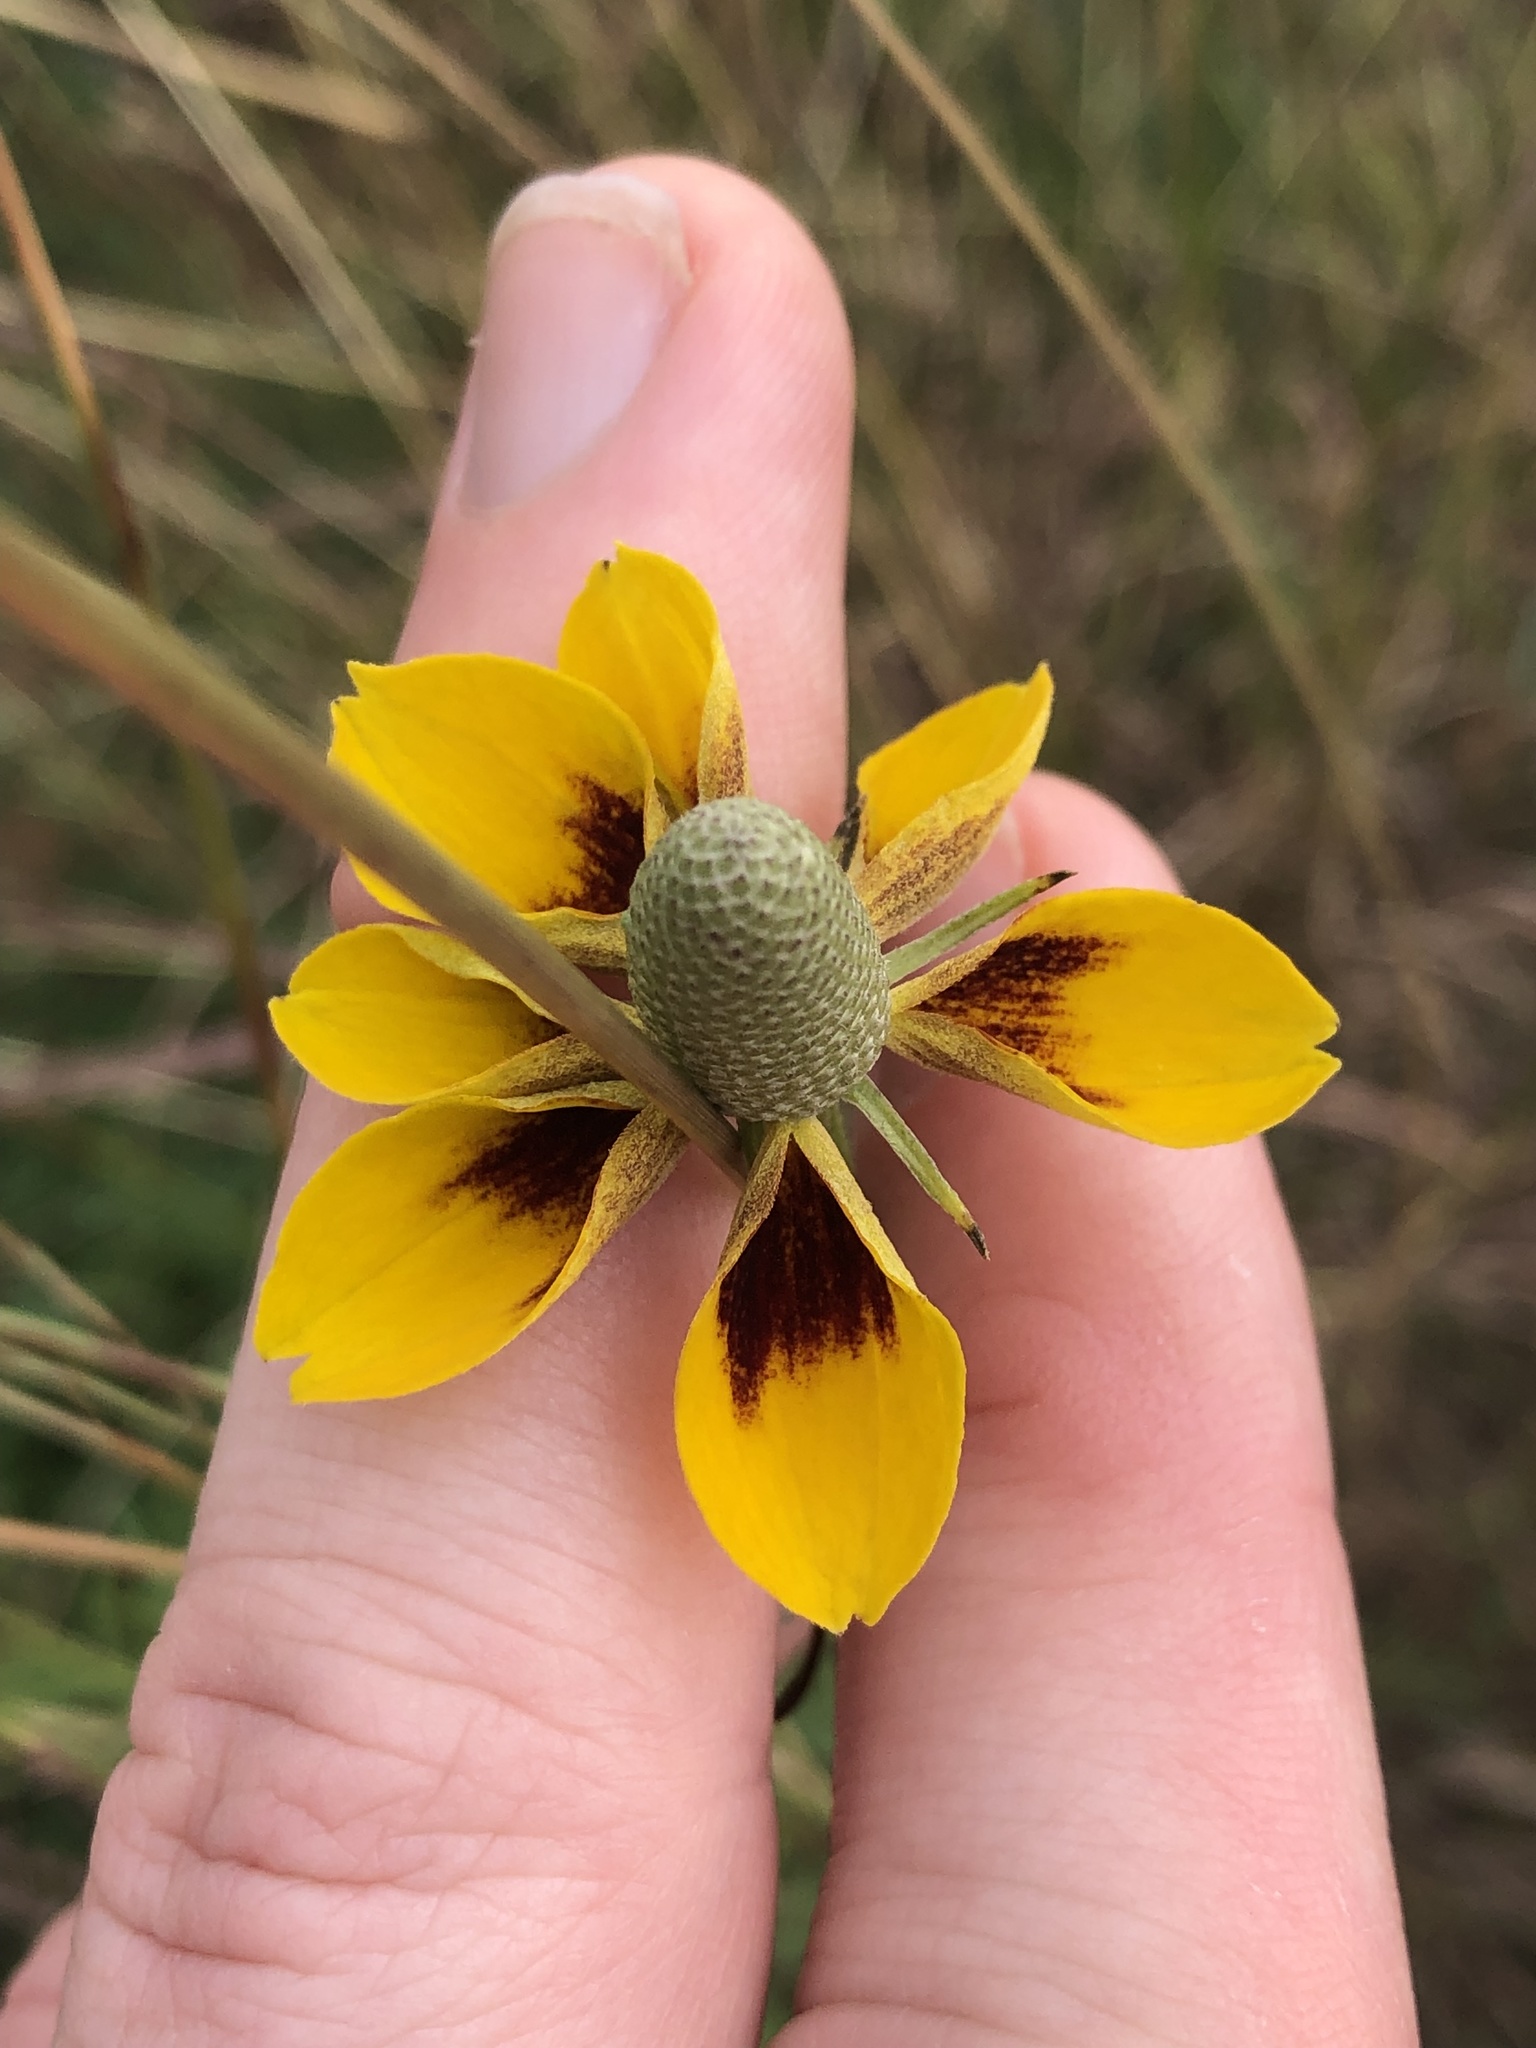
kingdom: Plantae
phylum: Tracheophyta
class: Magnoliopsida
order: Asterales
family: Asteraceae
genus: Ratibida
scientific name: Ratibida columnifera
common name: Prairie coneflower
